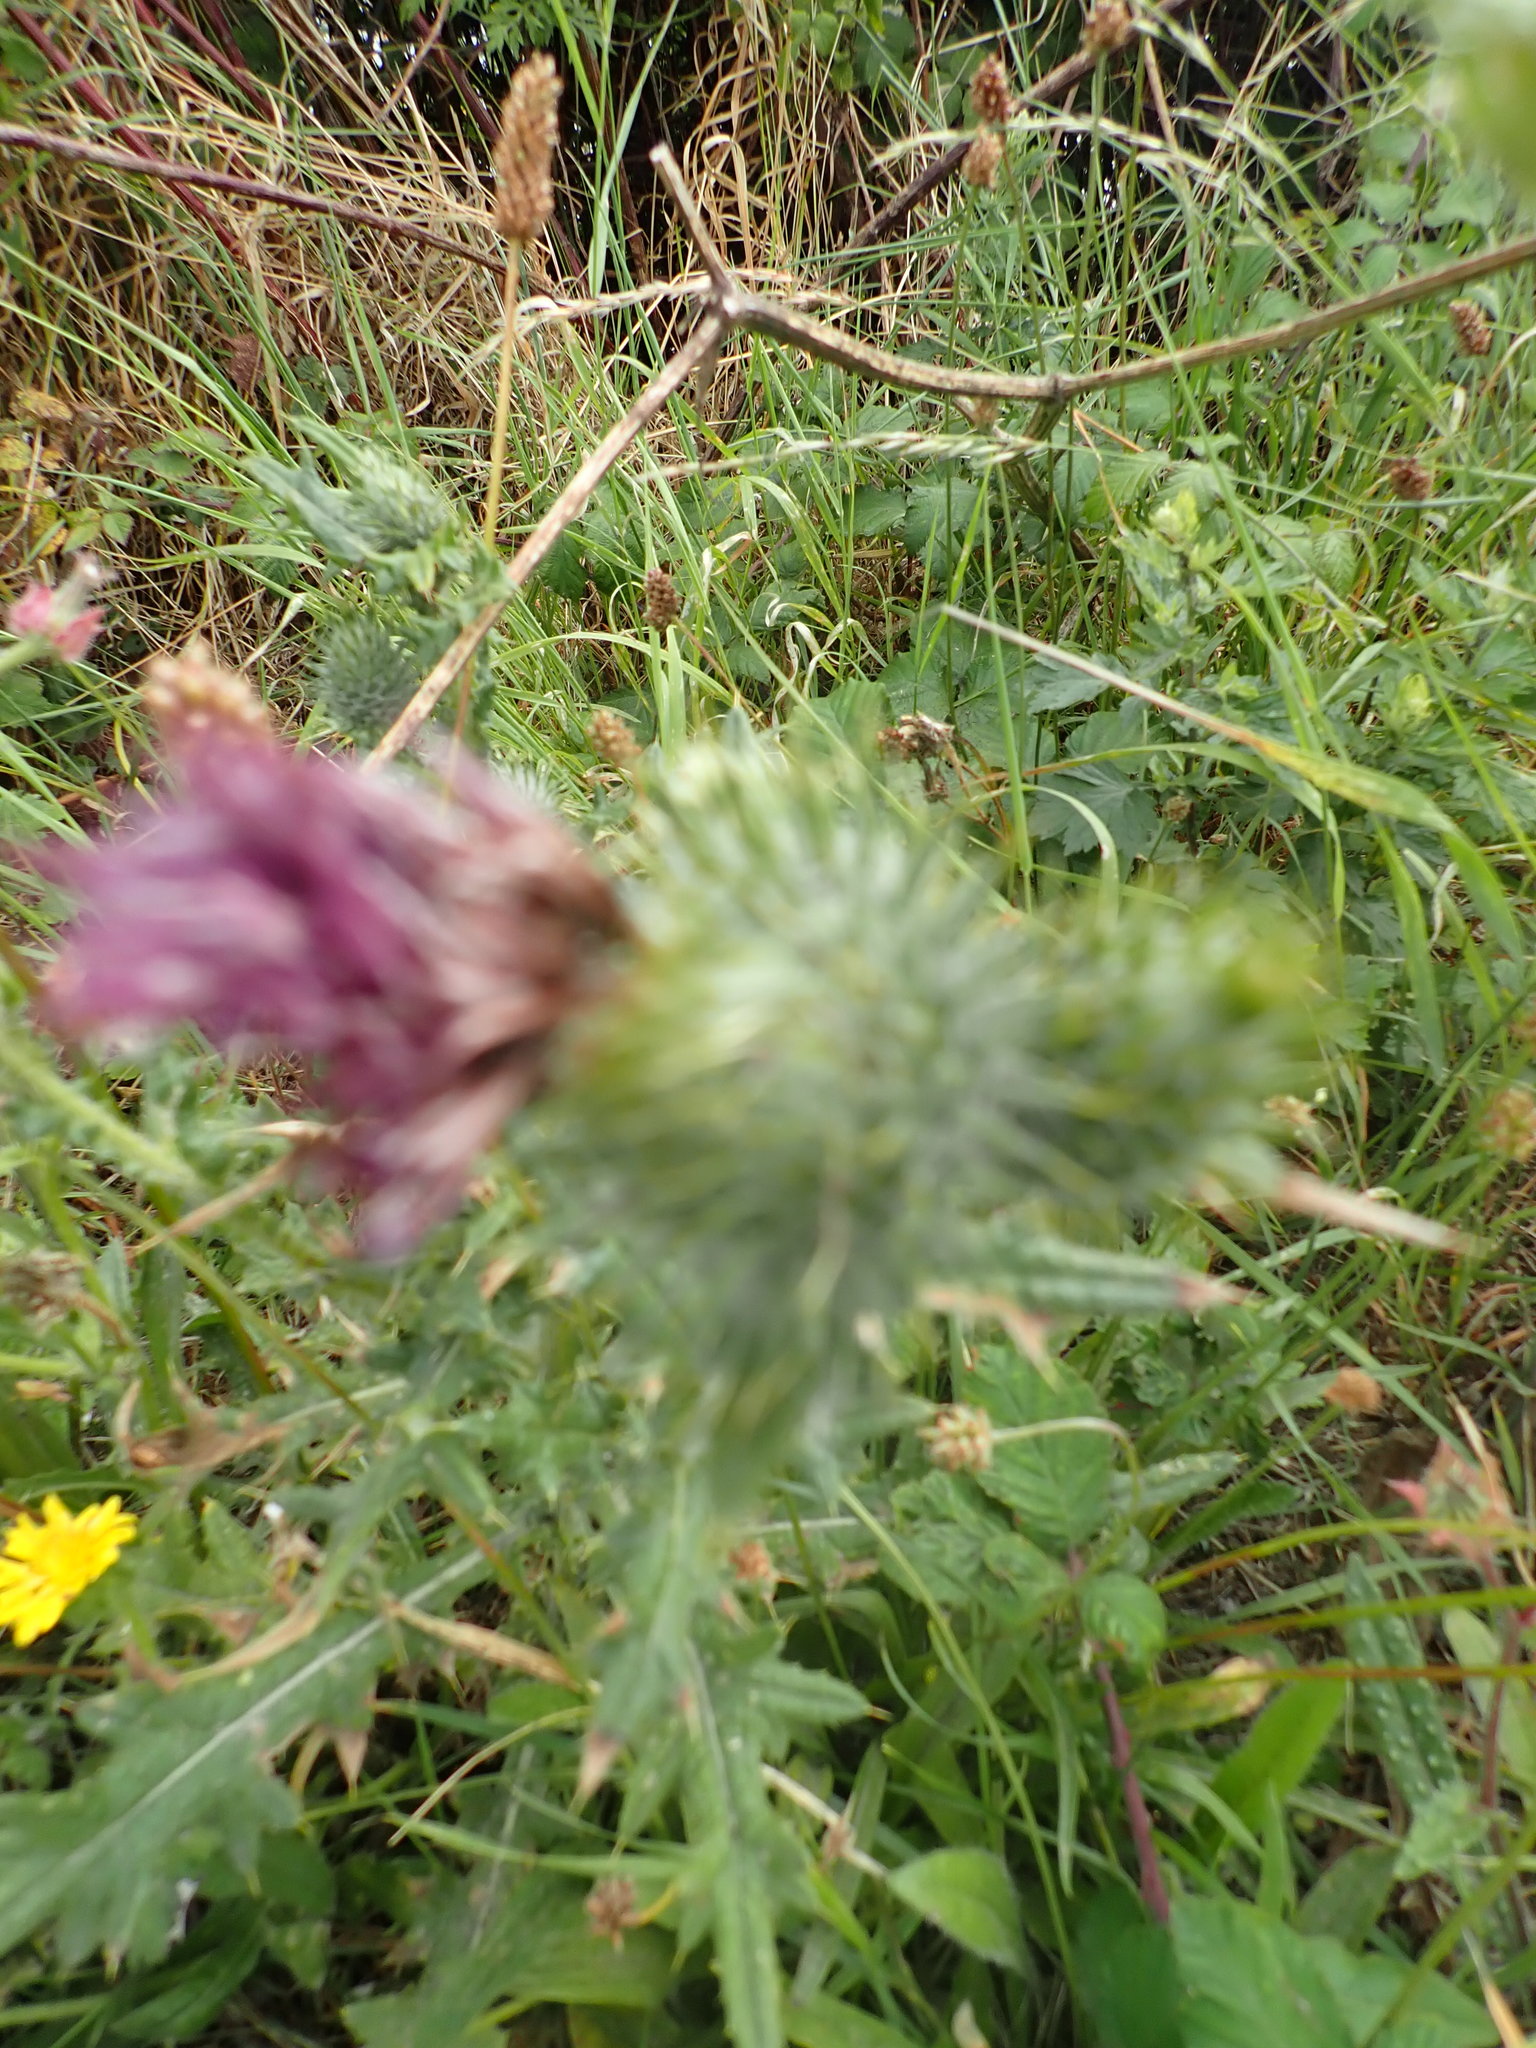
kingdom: Plantae
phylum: Tracheophyta
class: Magnoliopsida
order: Asterales
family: Asteraceae
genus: Cirsium
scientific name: Cirsium vulgare
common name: Bull thistle
